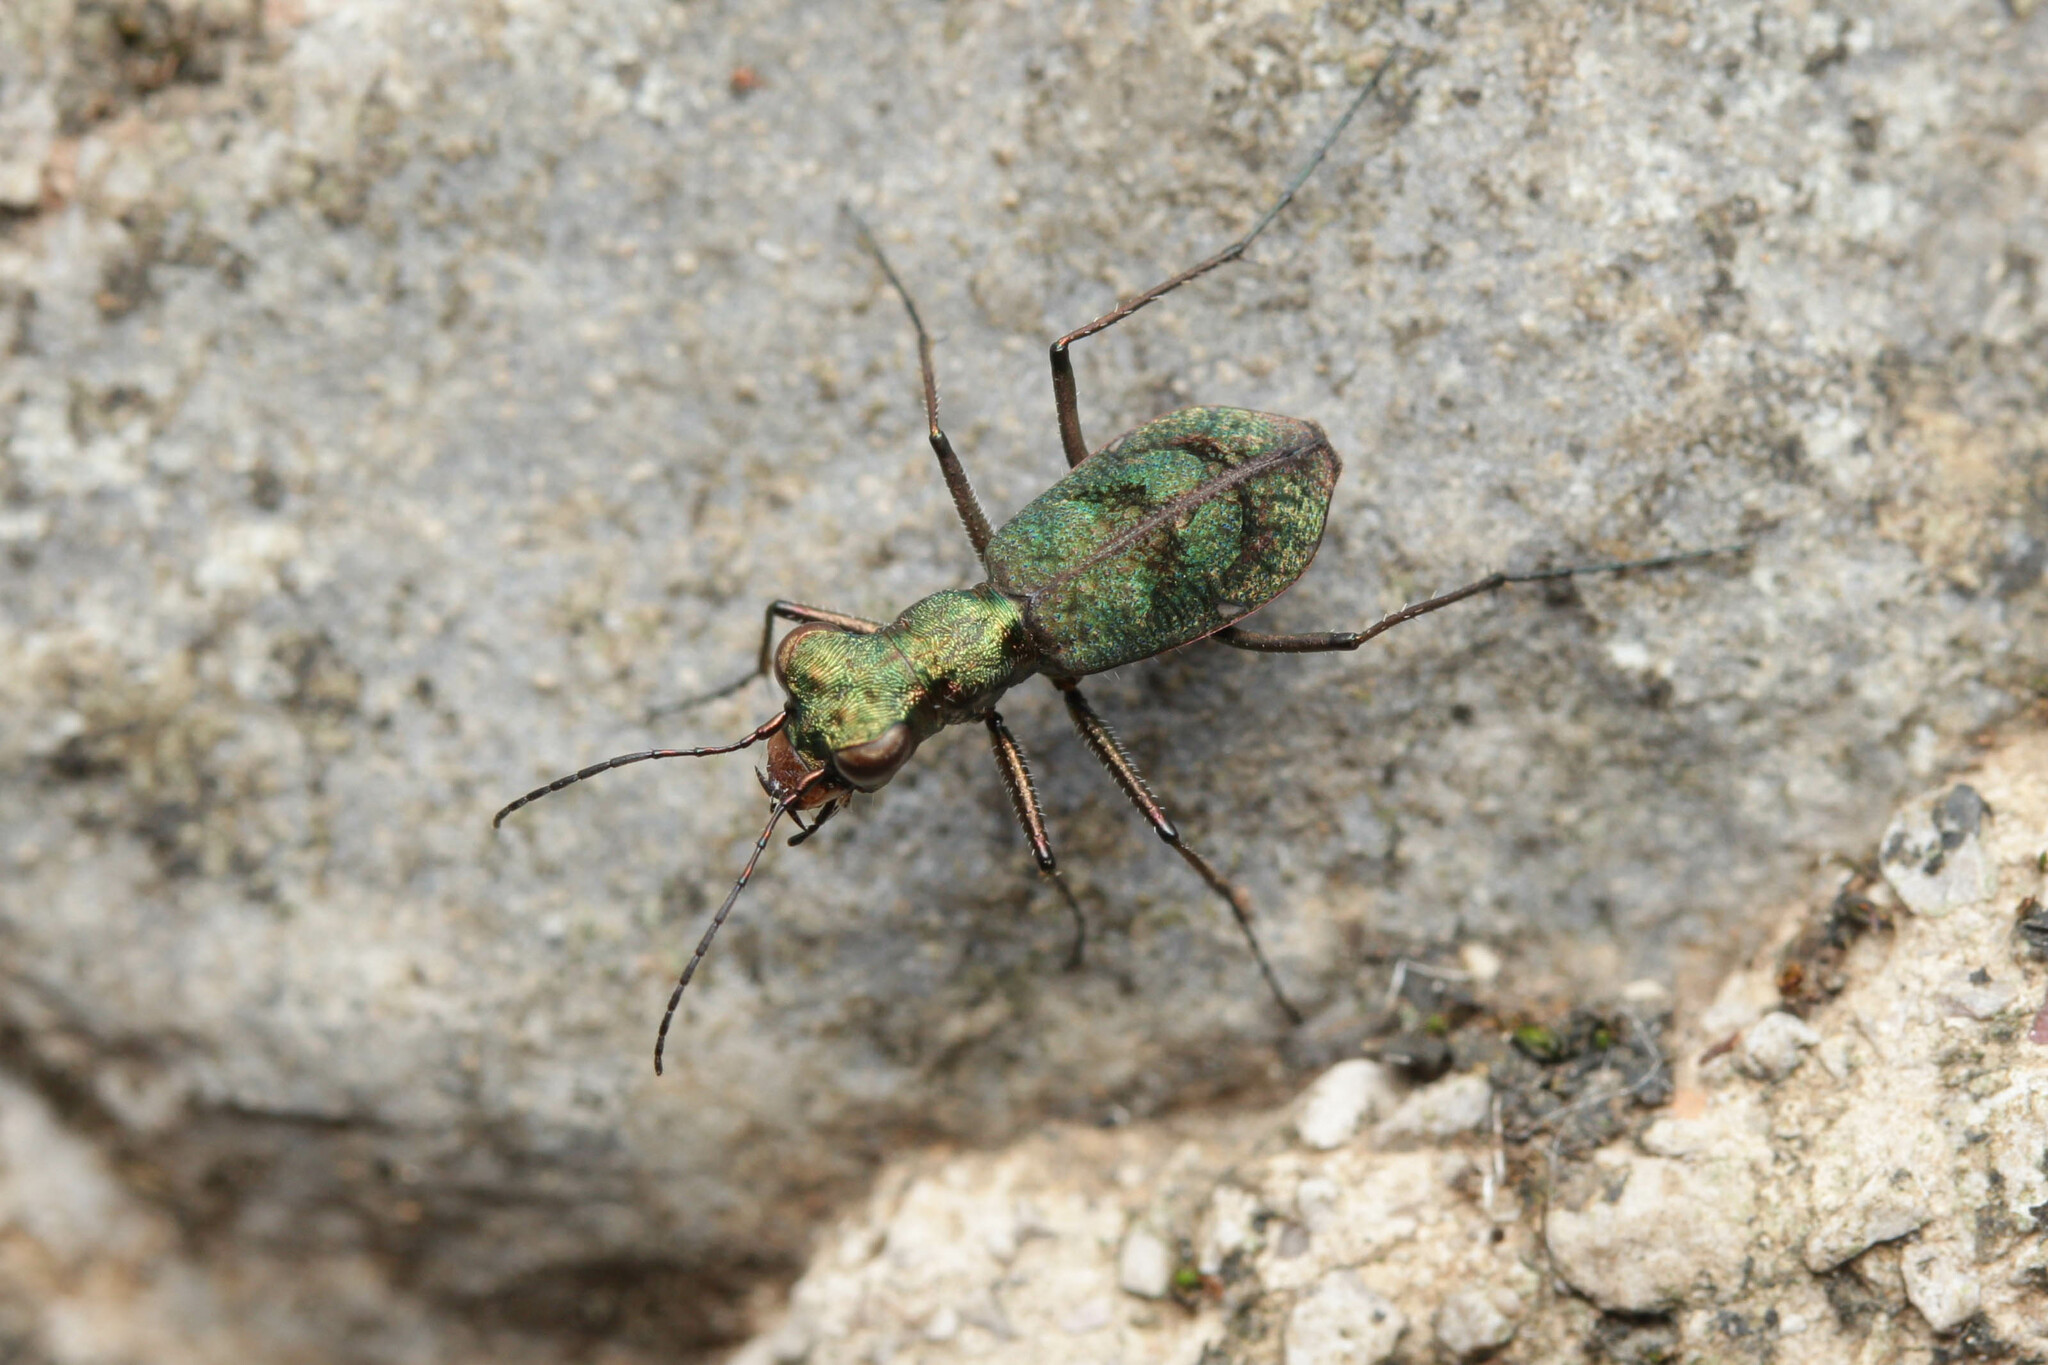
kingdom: Animalia
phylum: Arthropoda
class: Insecta
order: Coleoptera
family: Carabidae
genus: Cylindera
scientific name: Cylindera delavayi
